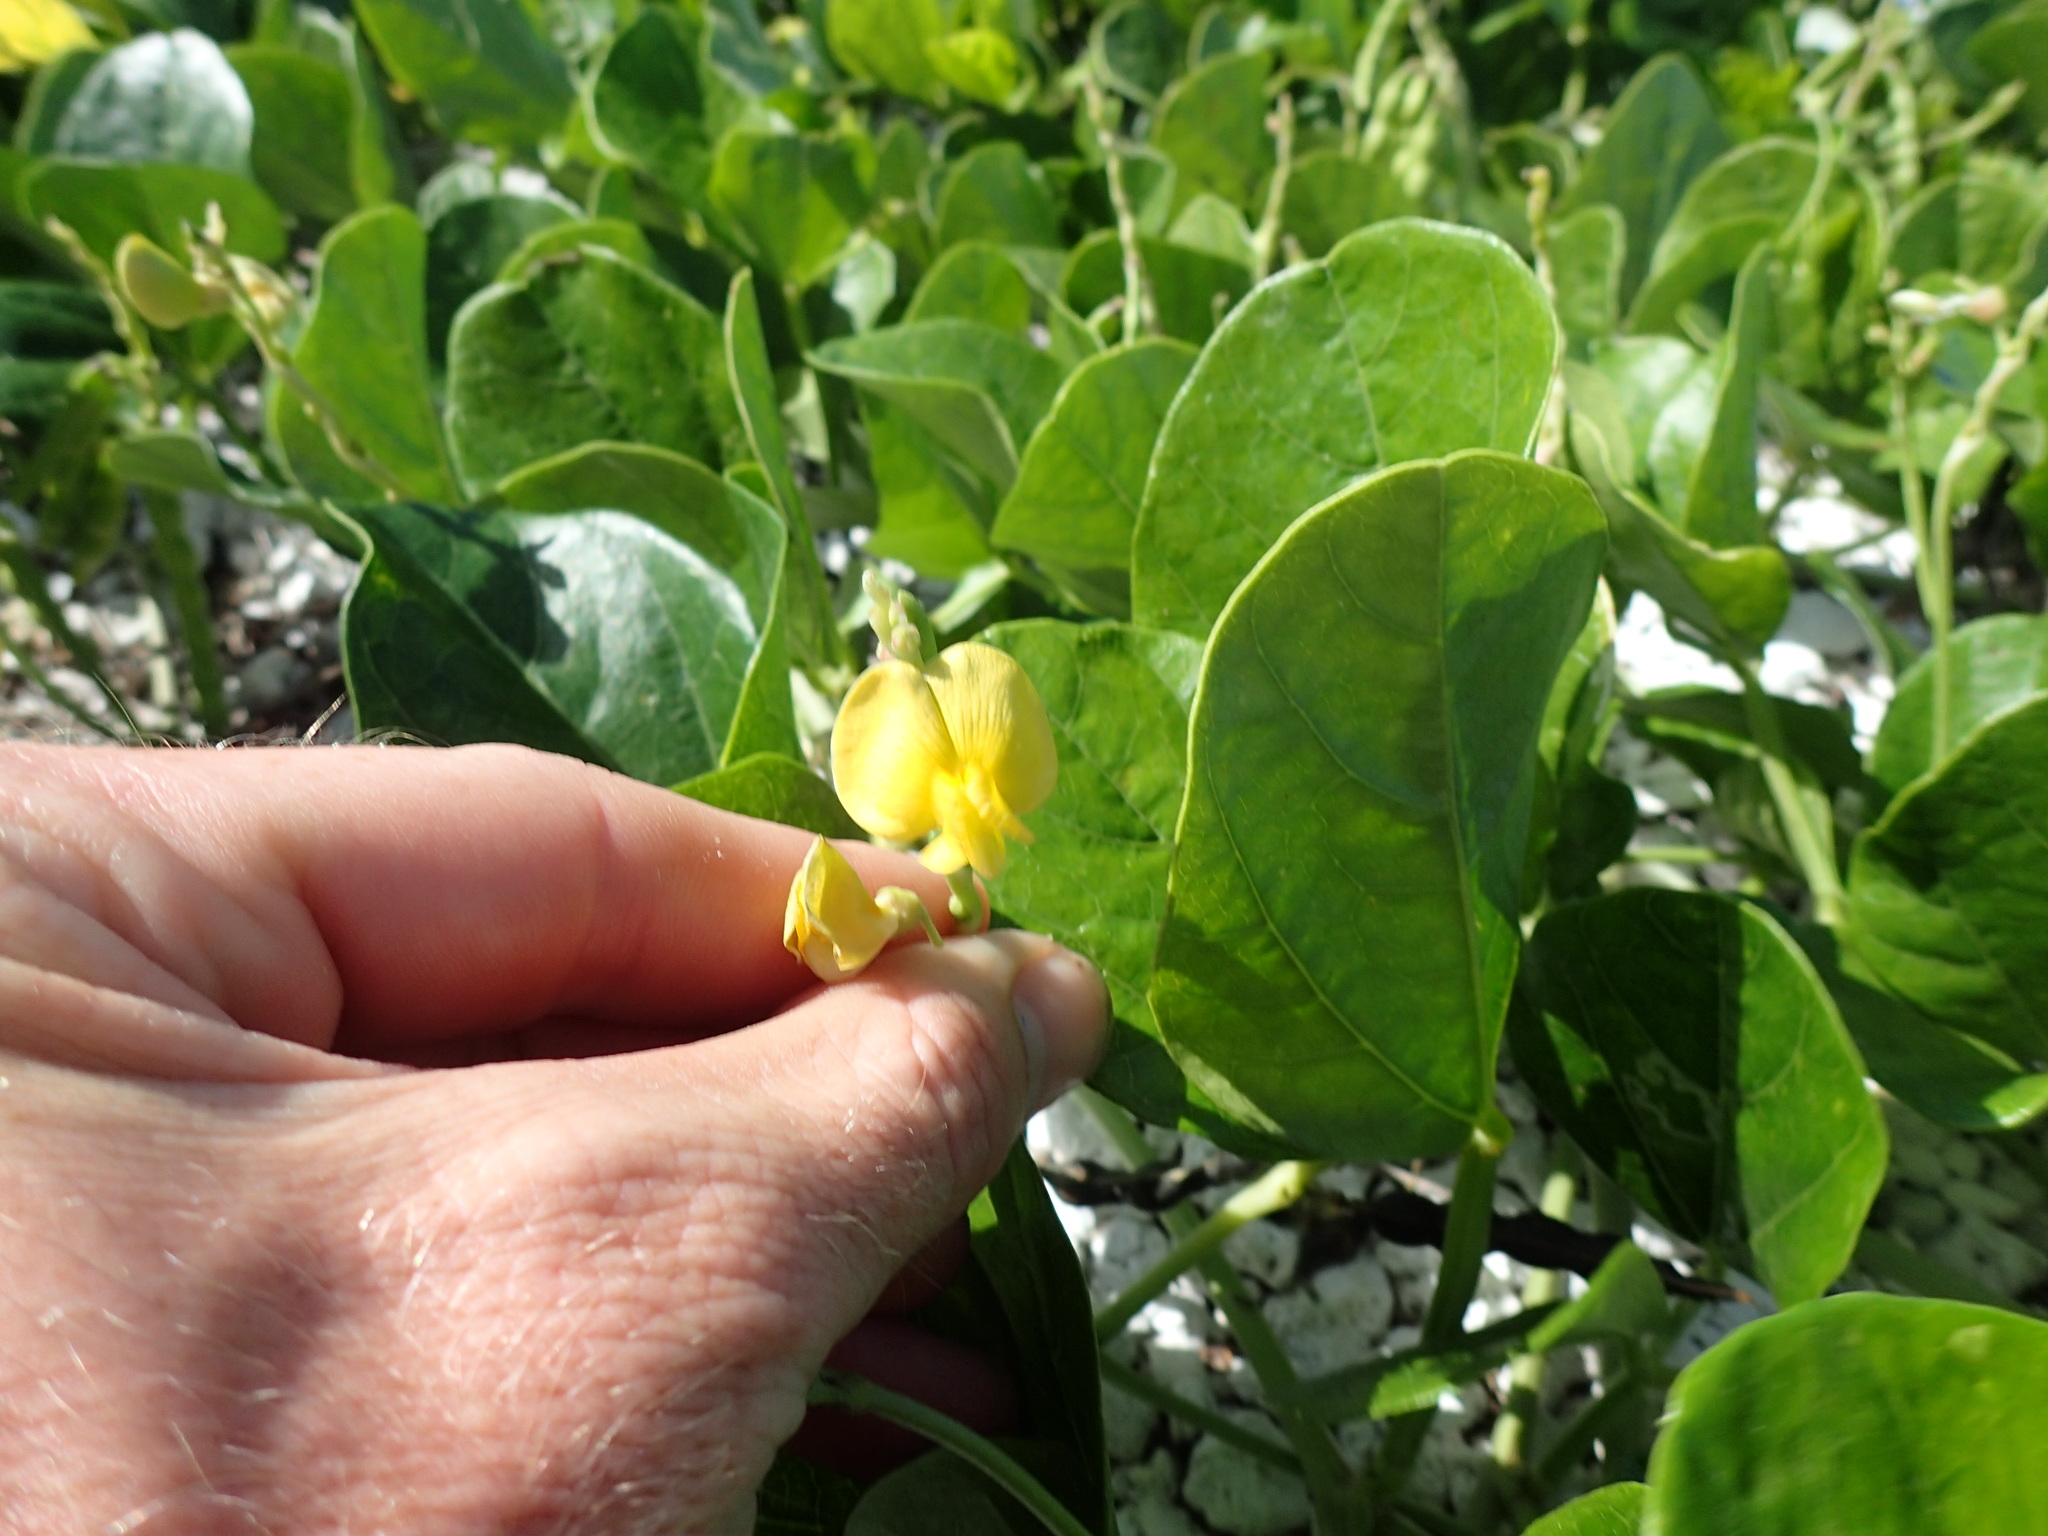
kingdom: Plantae
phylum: Tracheophyta
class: Magnoliopsida
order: Fabales
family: Fabaceae
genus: Vigna
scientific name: Vigna marina
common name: Dune-bean
